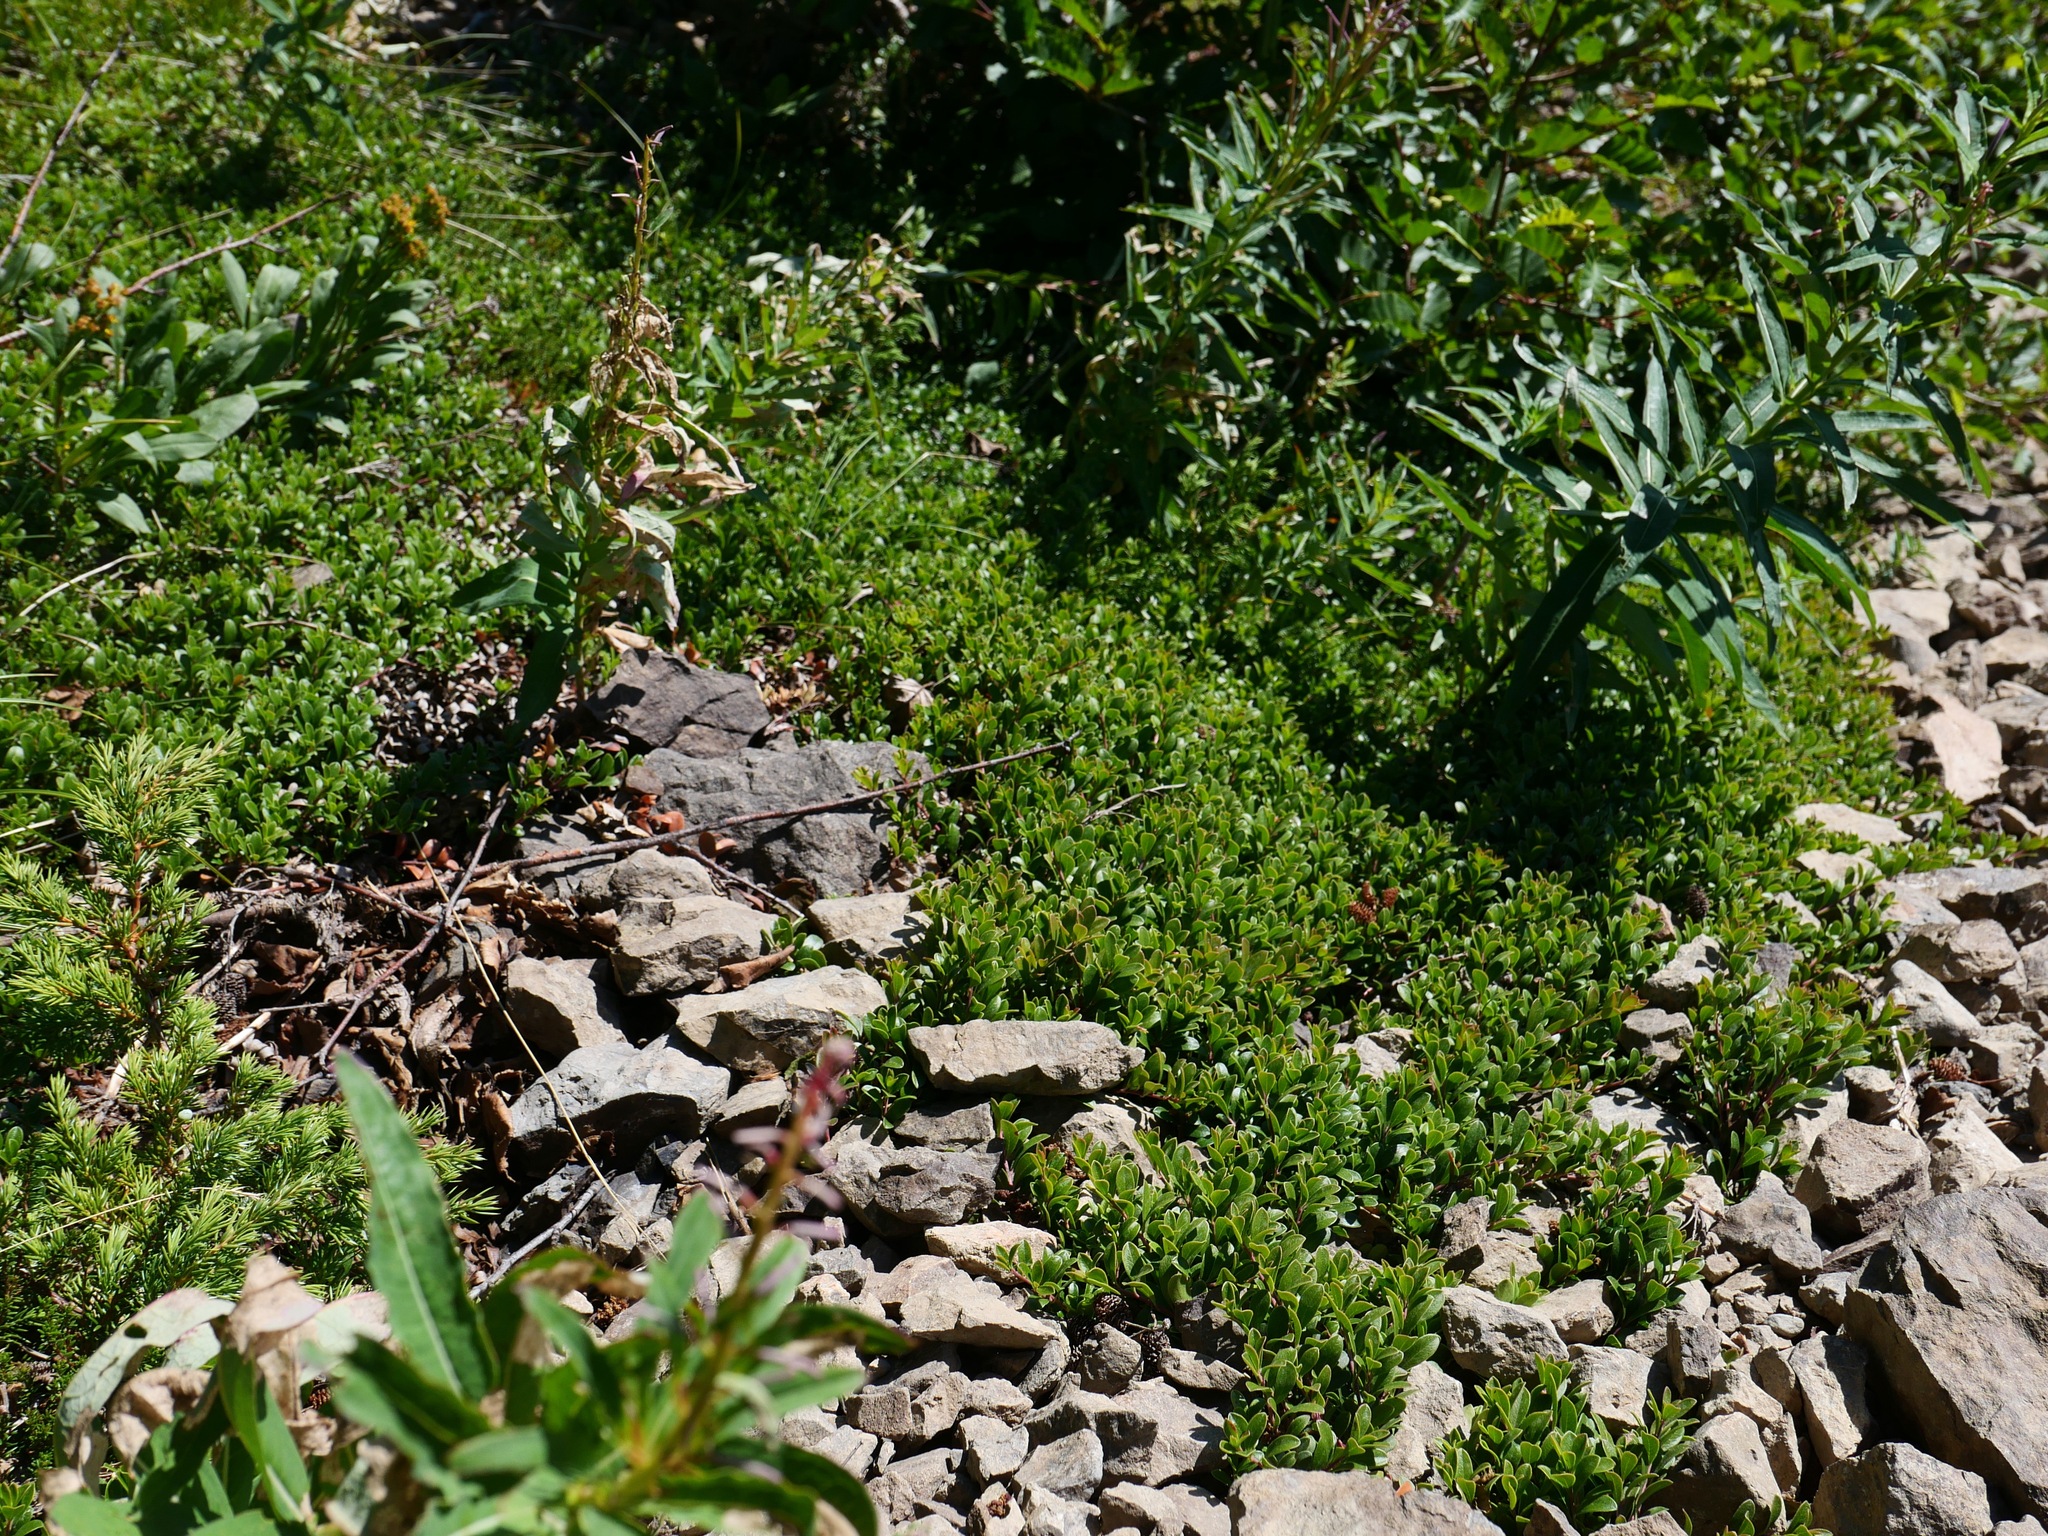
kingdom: Plantae
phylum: Tracheophyta
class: Magnoliopsida
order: Ericales
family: Ericaceae
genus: Arctostaphylos
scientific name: Arctostaphylos uva-ursi
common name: Bearberry
